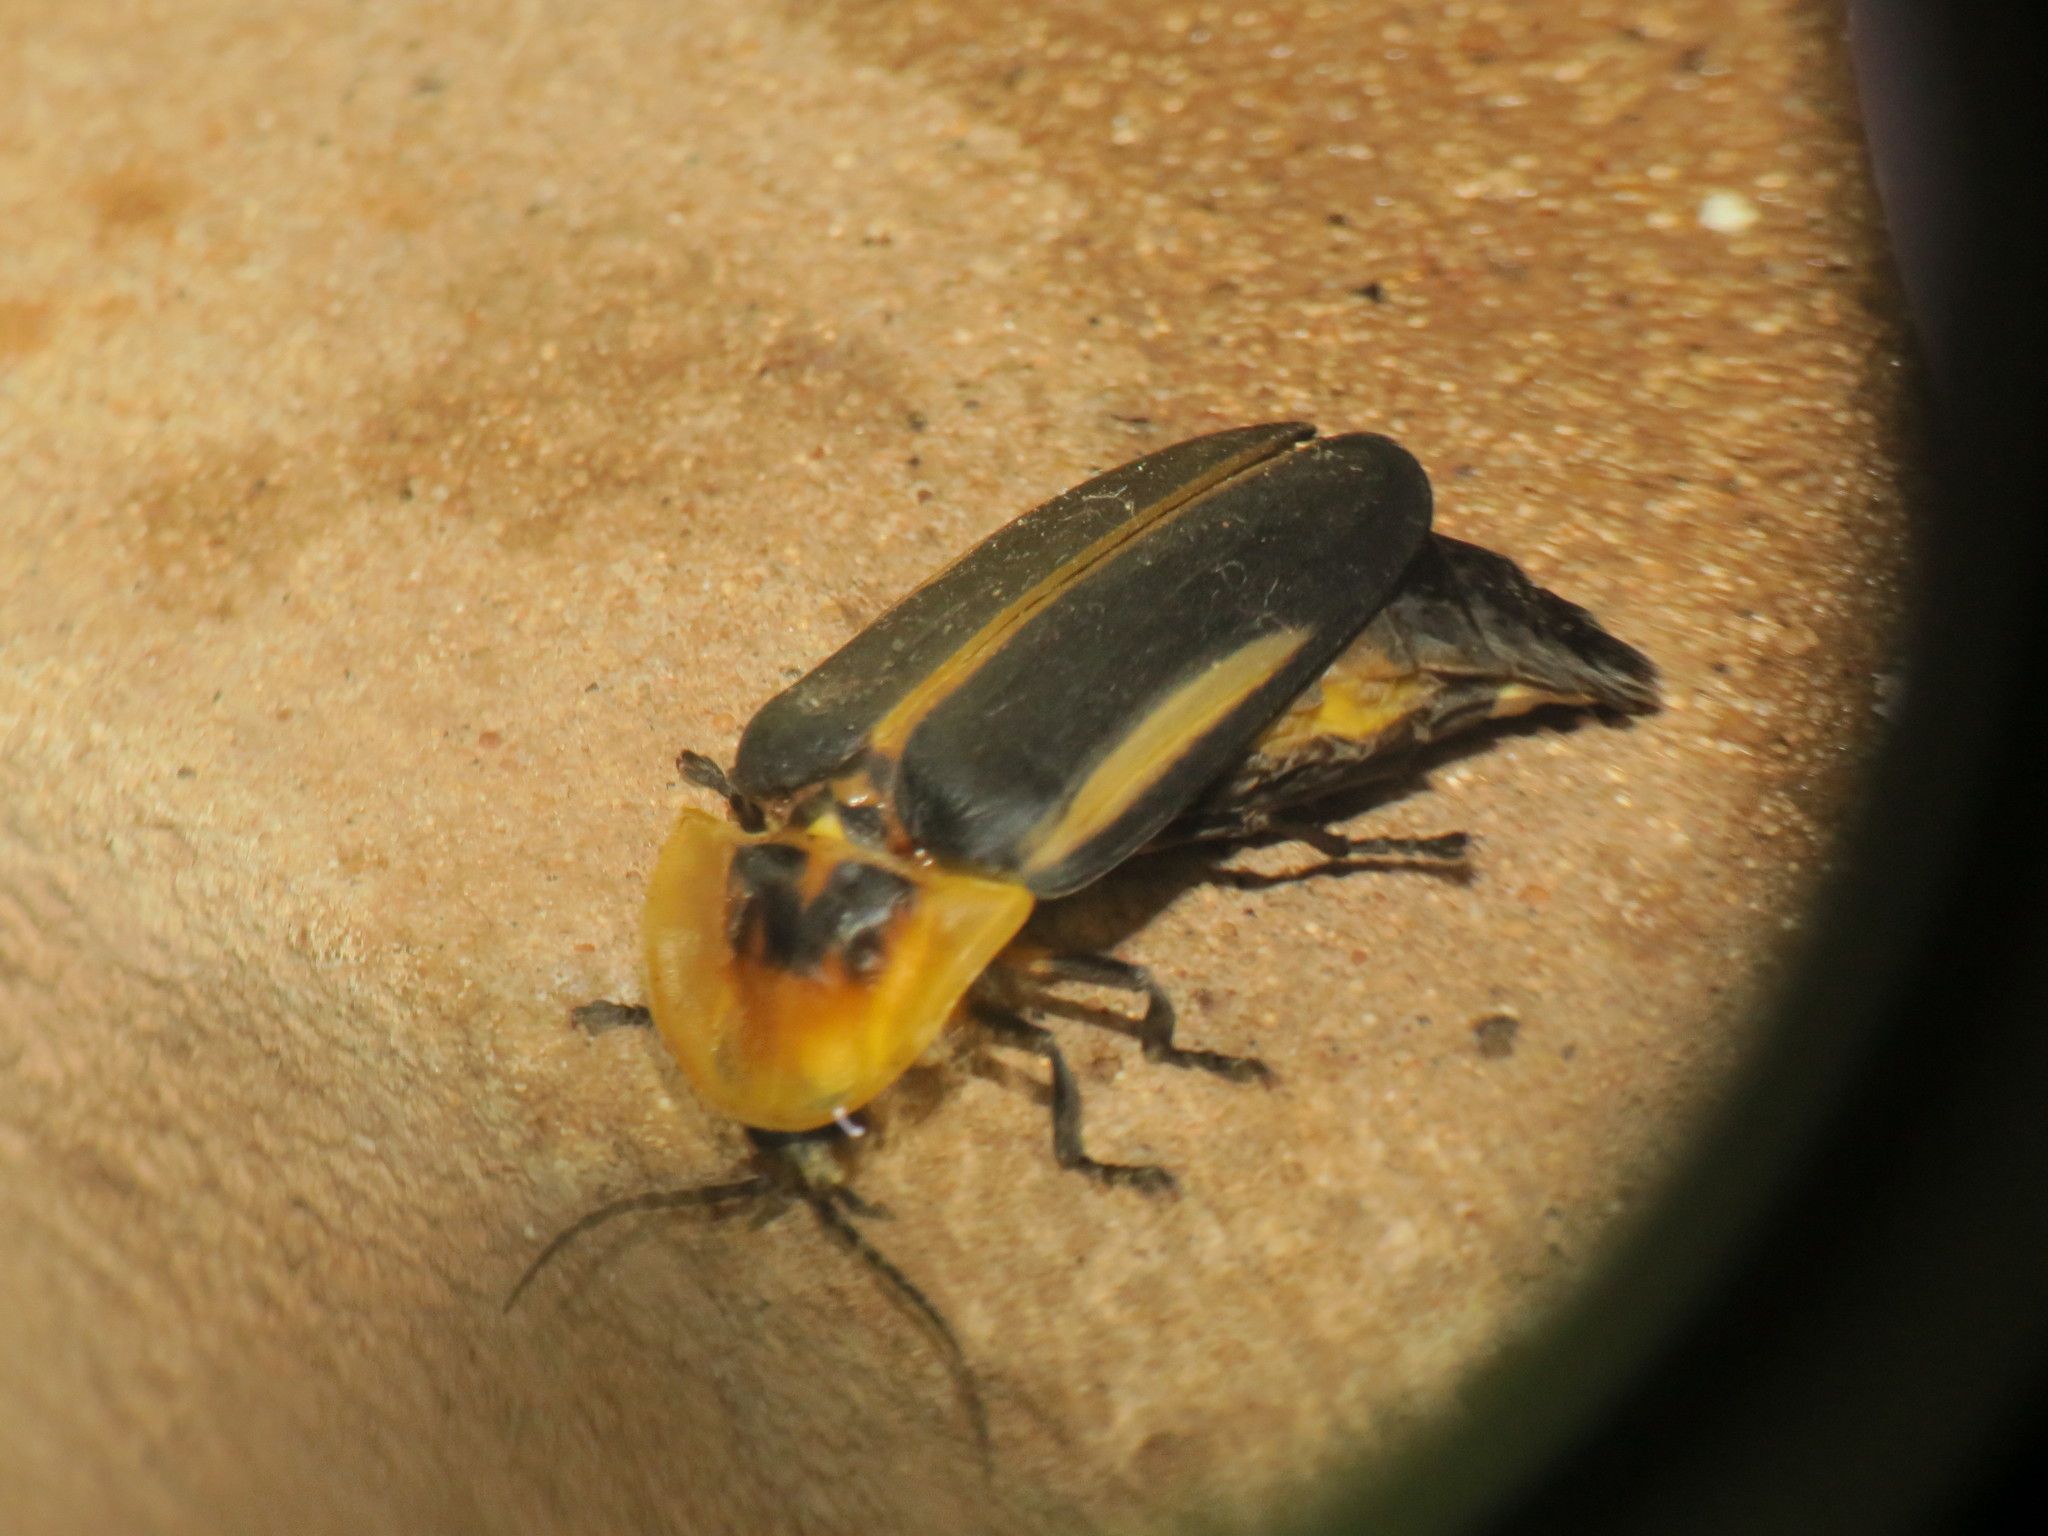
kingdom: Animalia
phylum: Arthropoda
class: Insecta
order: Coleoptera
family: Lampyridae
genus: Cratomorphus
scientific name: Cratomorphus distinctus
